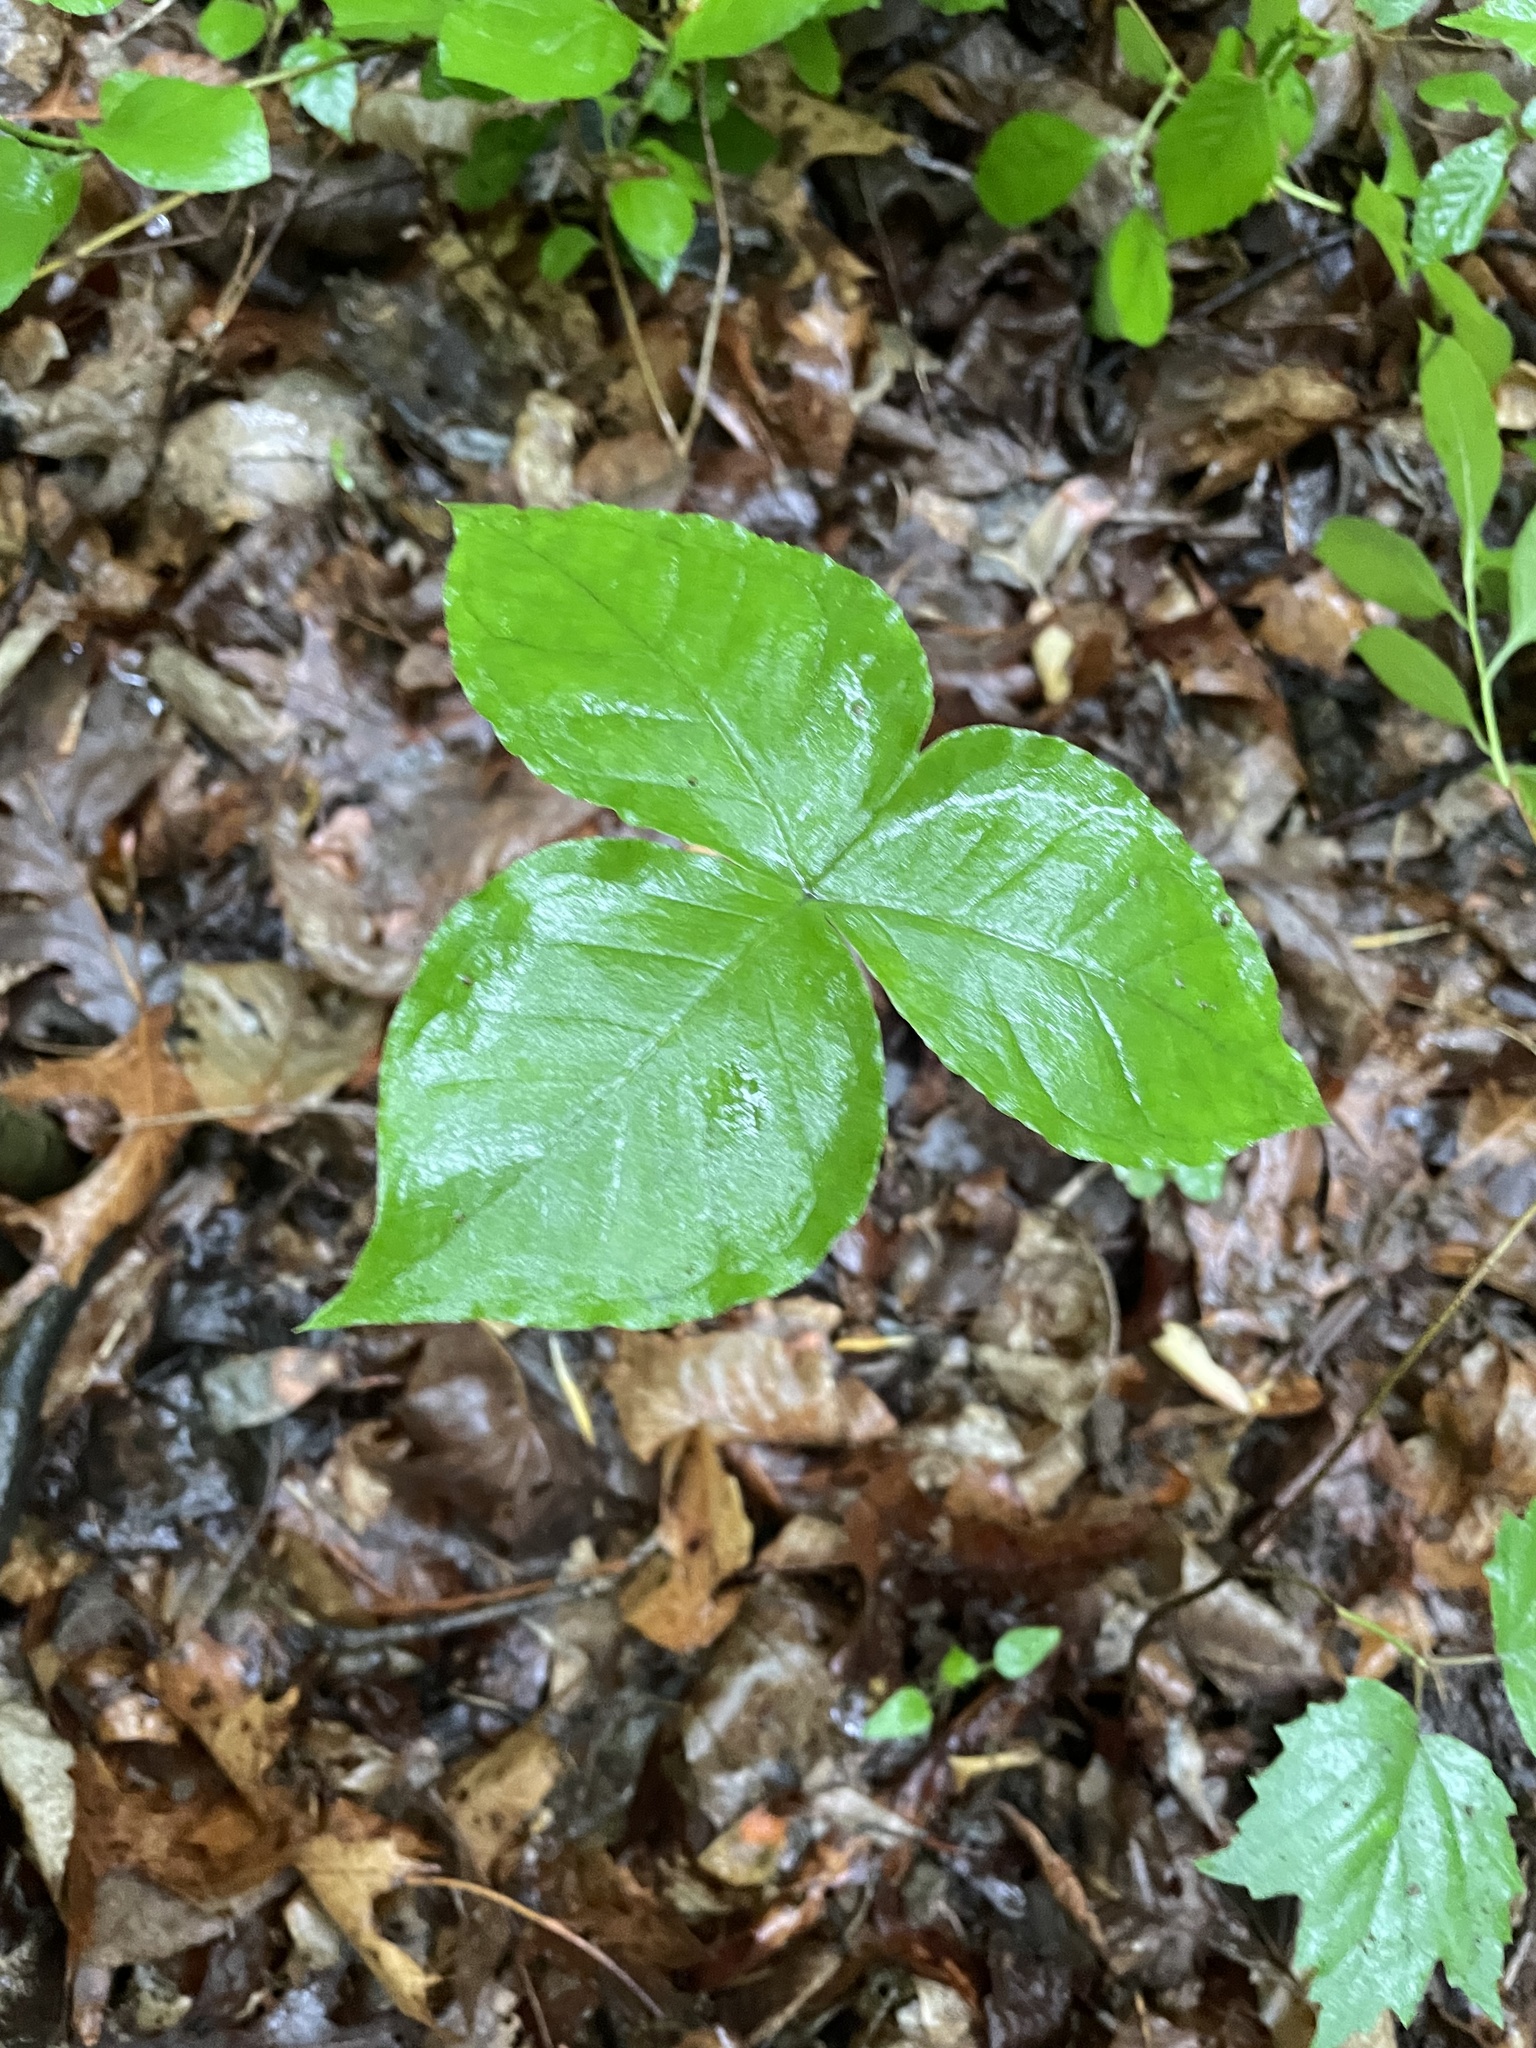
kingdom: Plantae
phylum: Tracheophyta
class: Liliopsida
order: Alismatales
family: Araceae
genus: Arisaema
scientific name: Arisaema triphyllum
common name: Jack-in-the-pulpit
